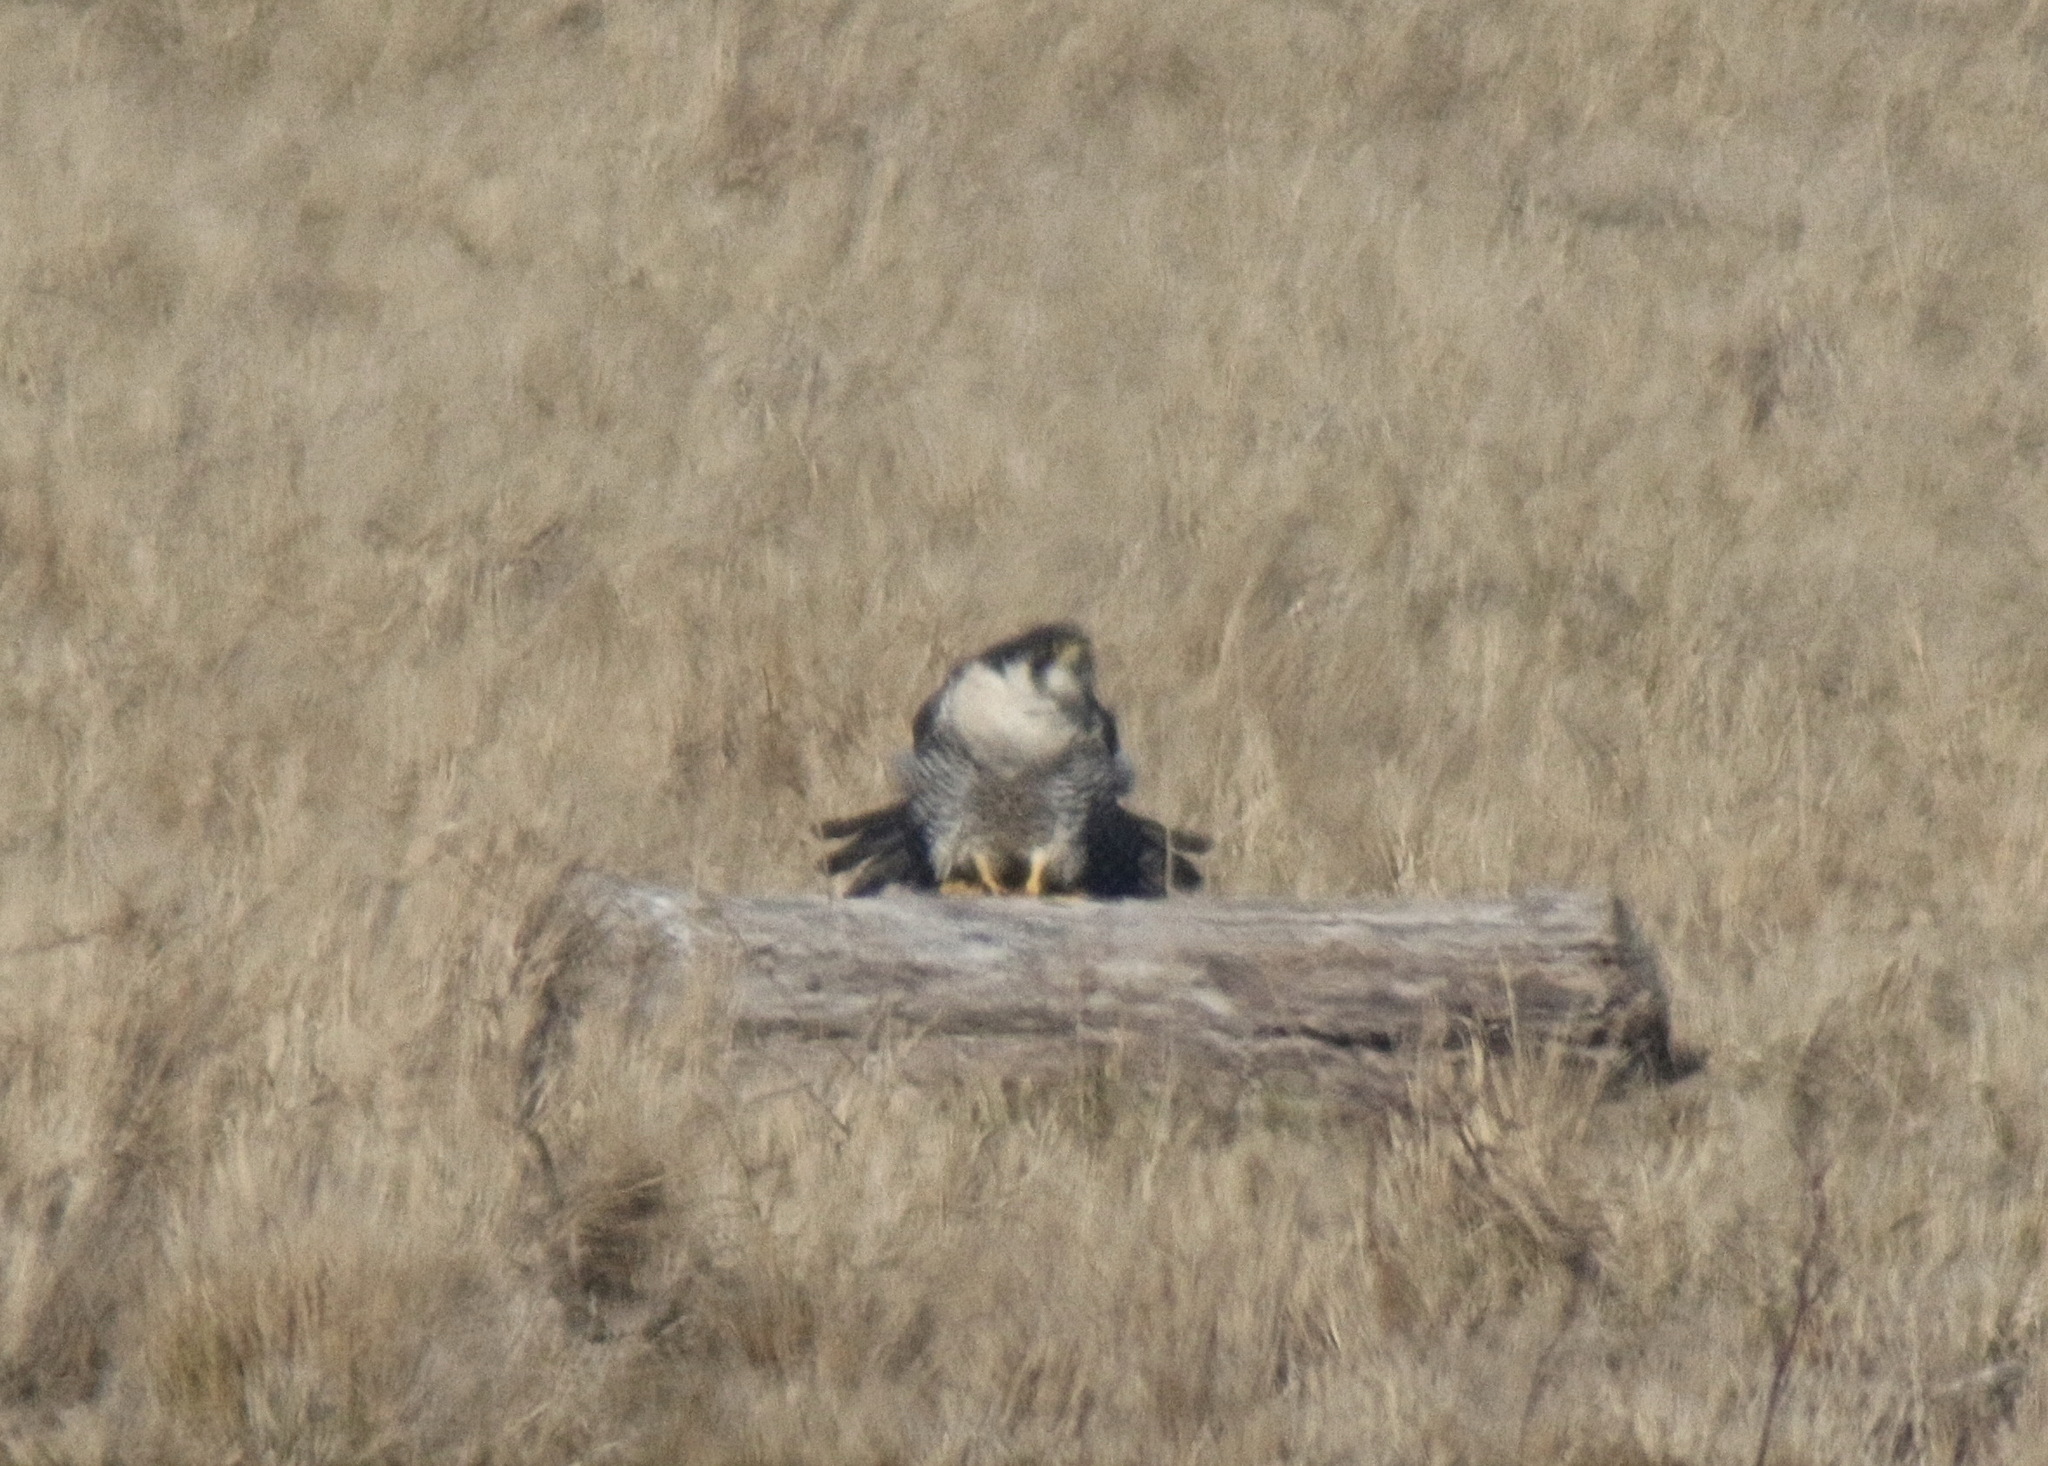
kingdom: Animalia
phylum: Chordata
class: Aves
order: Falconiformes
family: Falconidae
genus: Falco
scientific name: Falco peregrinus
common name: Peregrine falcon
